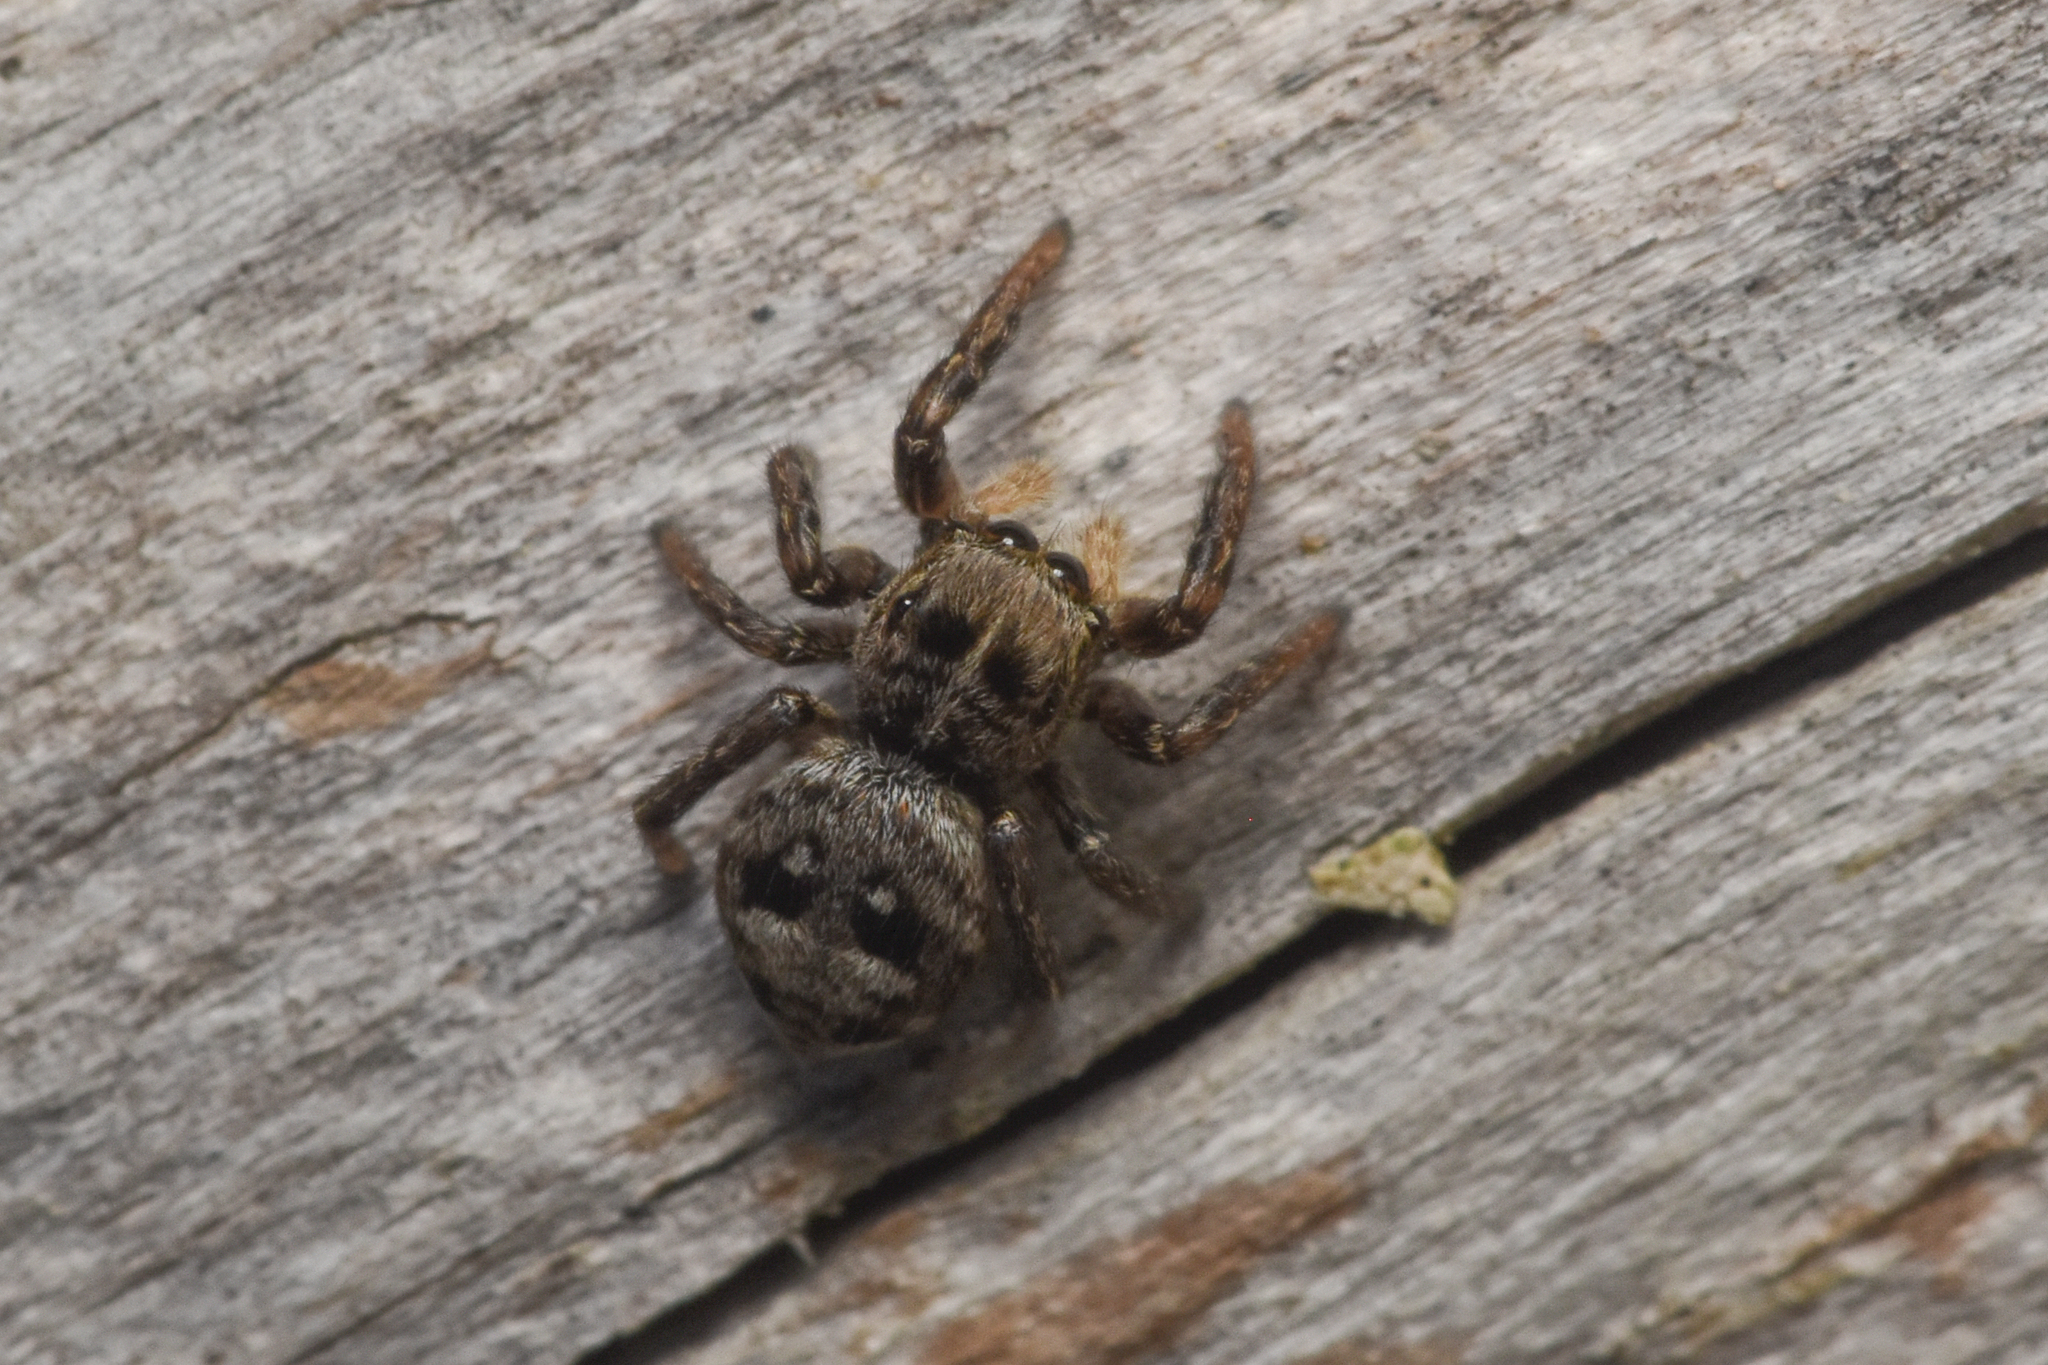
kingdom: Animalia
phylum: Arthropoda
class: Arachnida
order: Araneae
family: Salticidae
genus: Sittisax
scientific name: Sittisax ranieri
